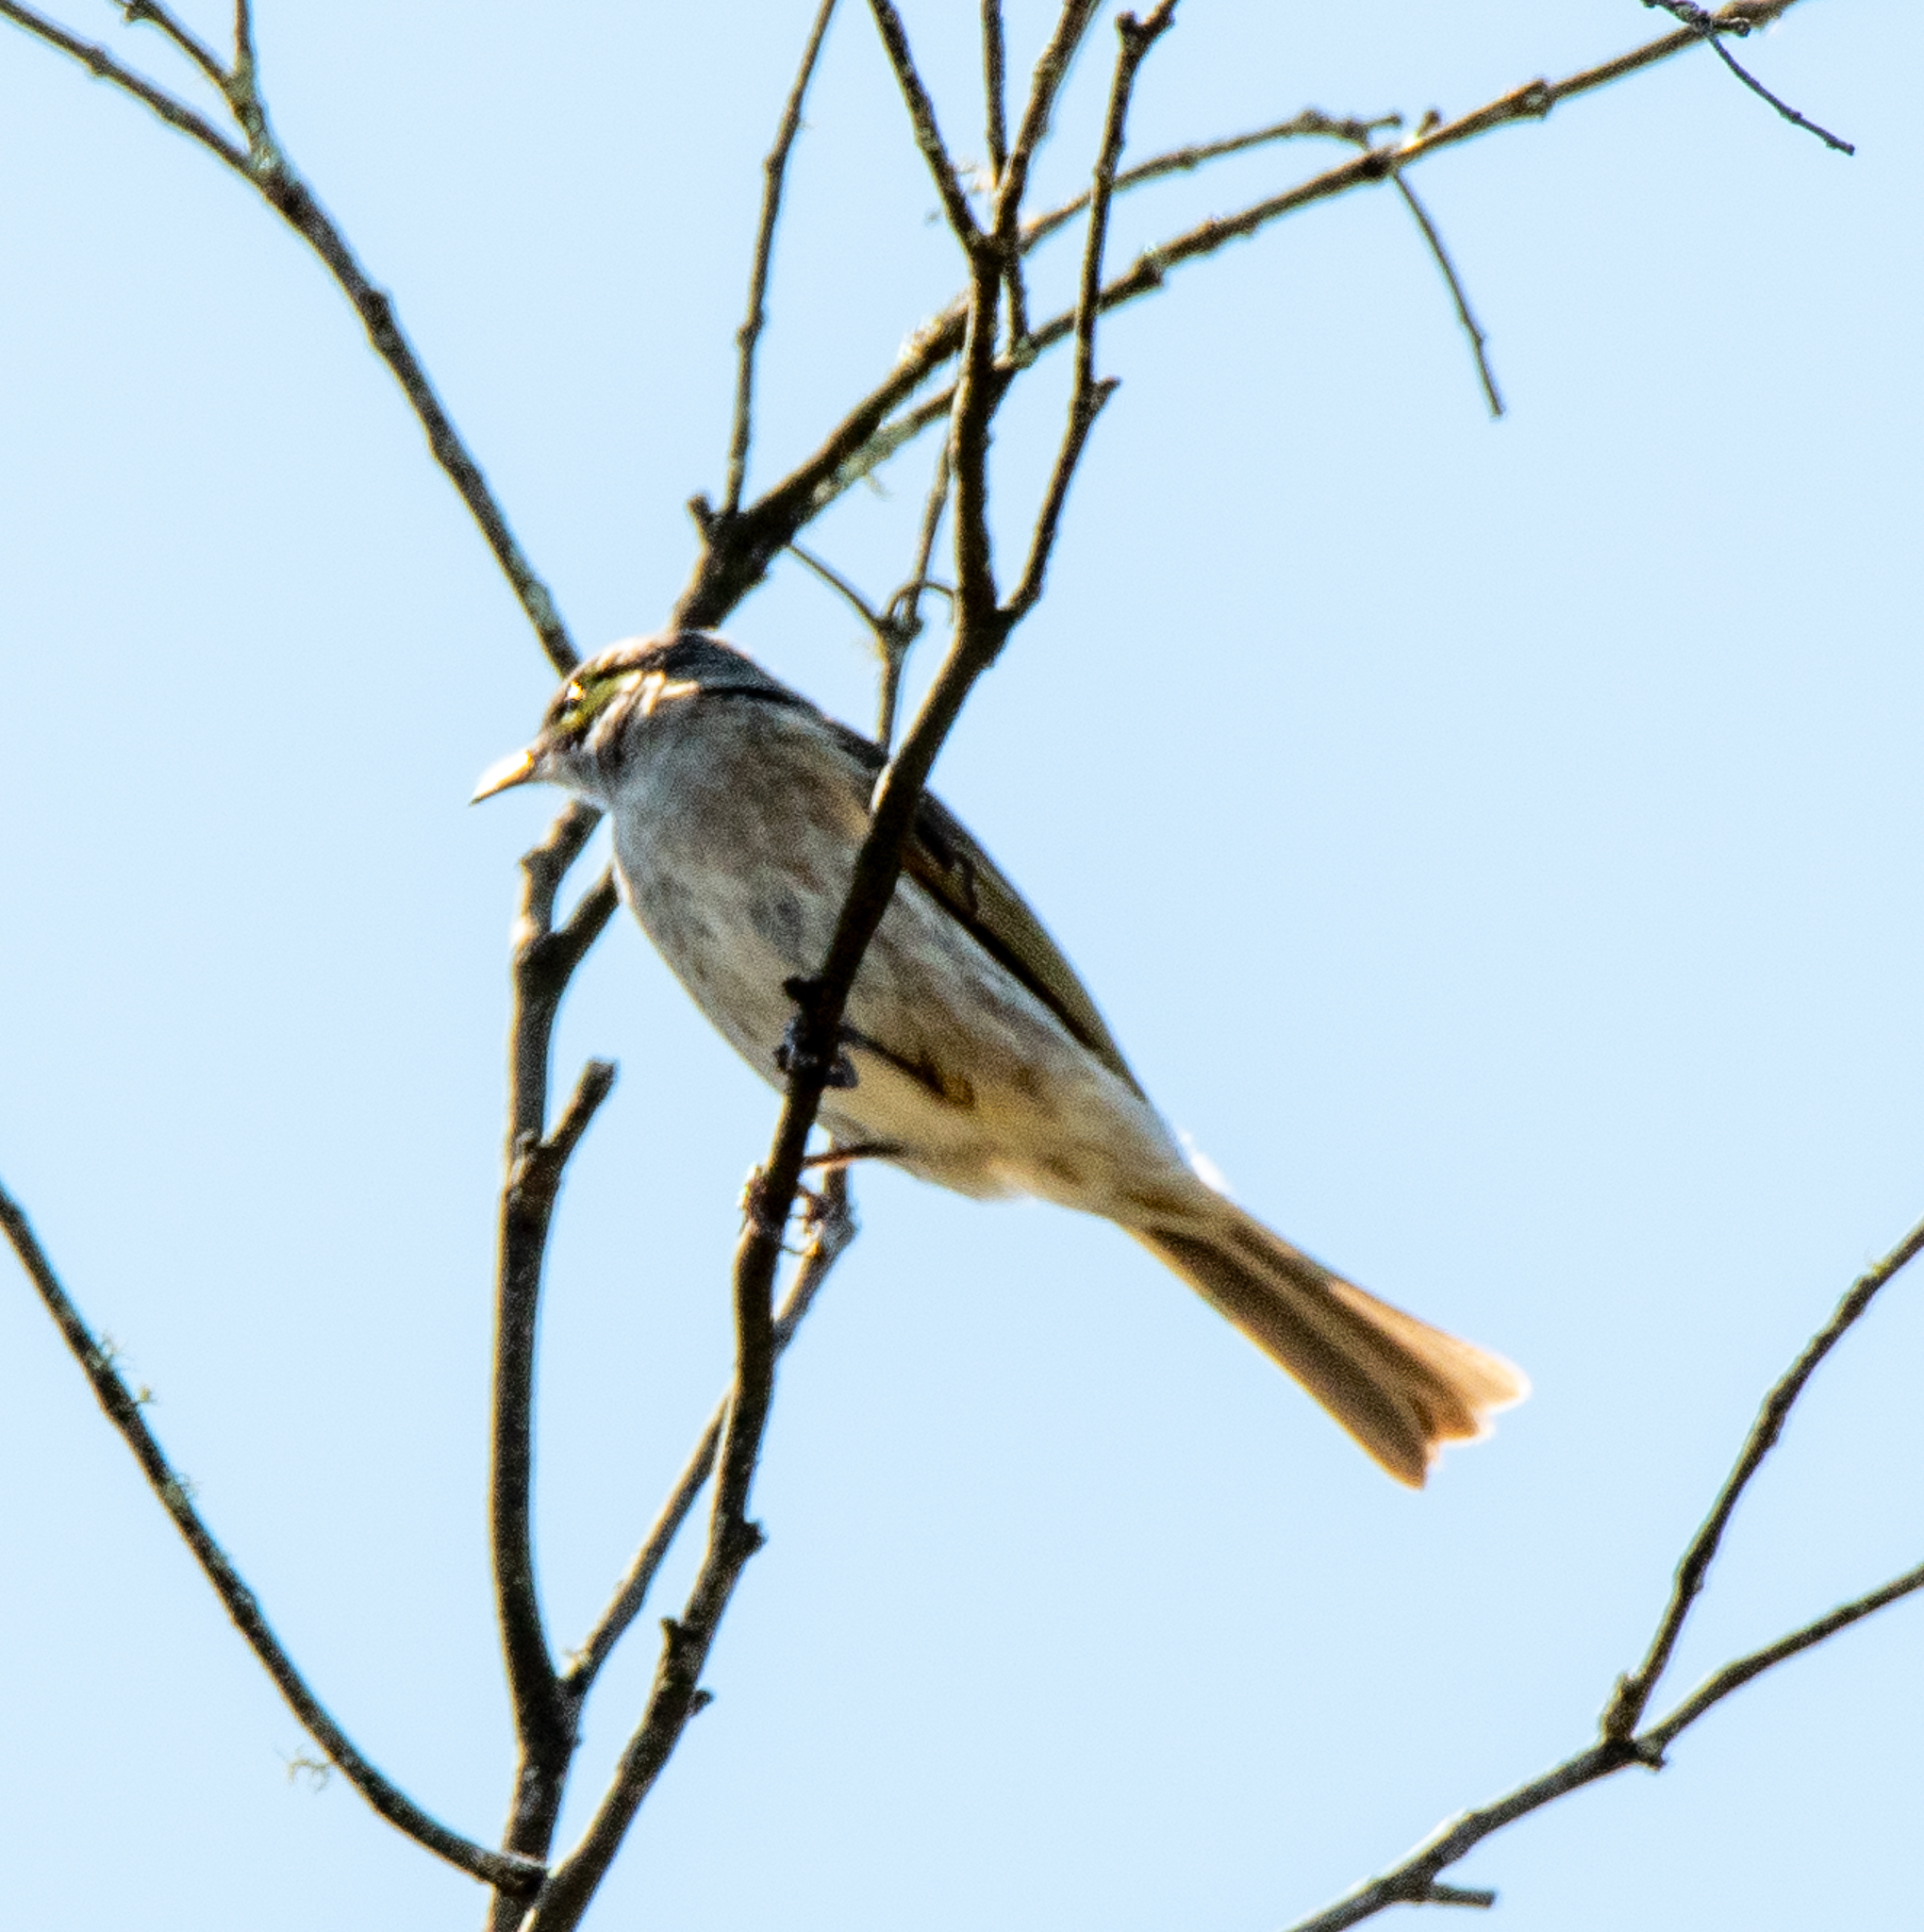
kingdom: Animalia
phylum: Chordata
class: Aves
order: Passeriformes
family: Meliphagidae
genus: Caligavis
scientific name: Caligavis chrysops
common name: Yellow-faced honeyeater
